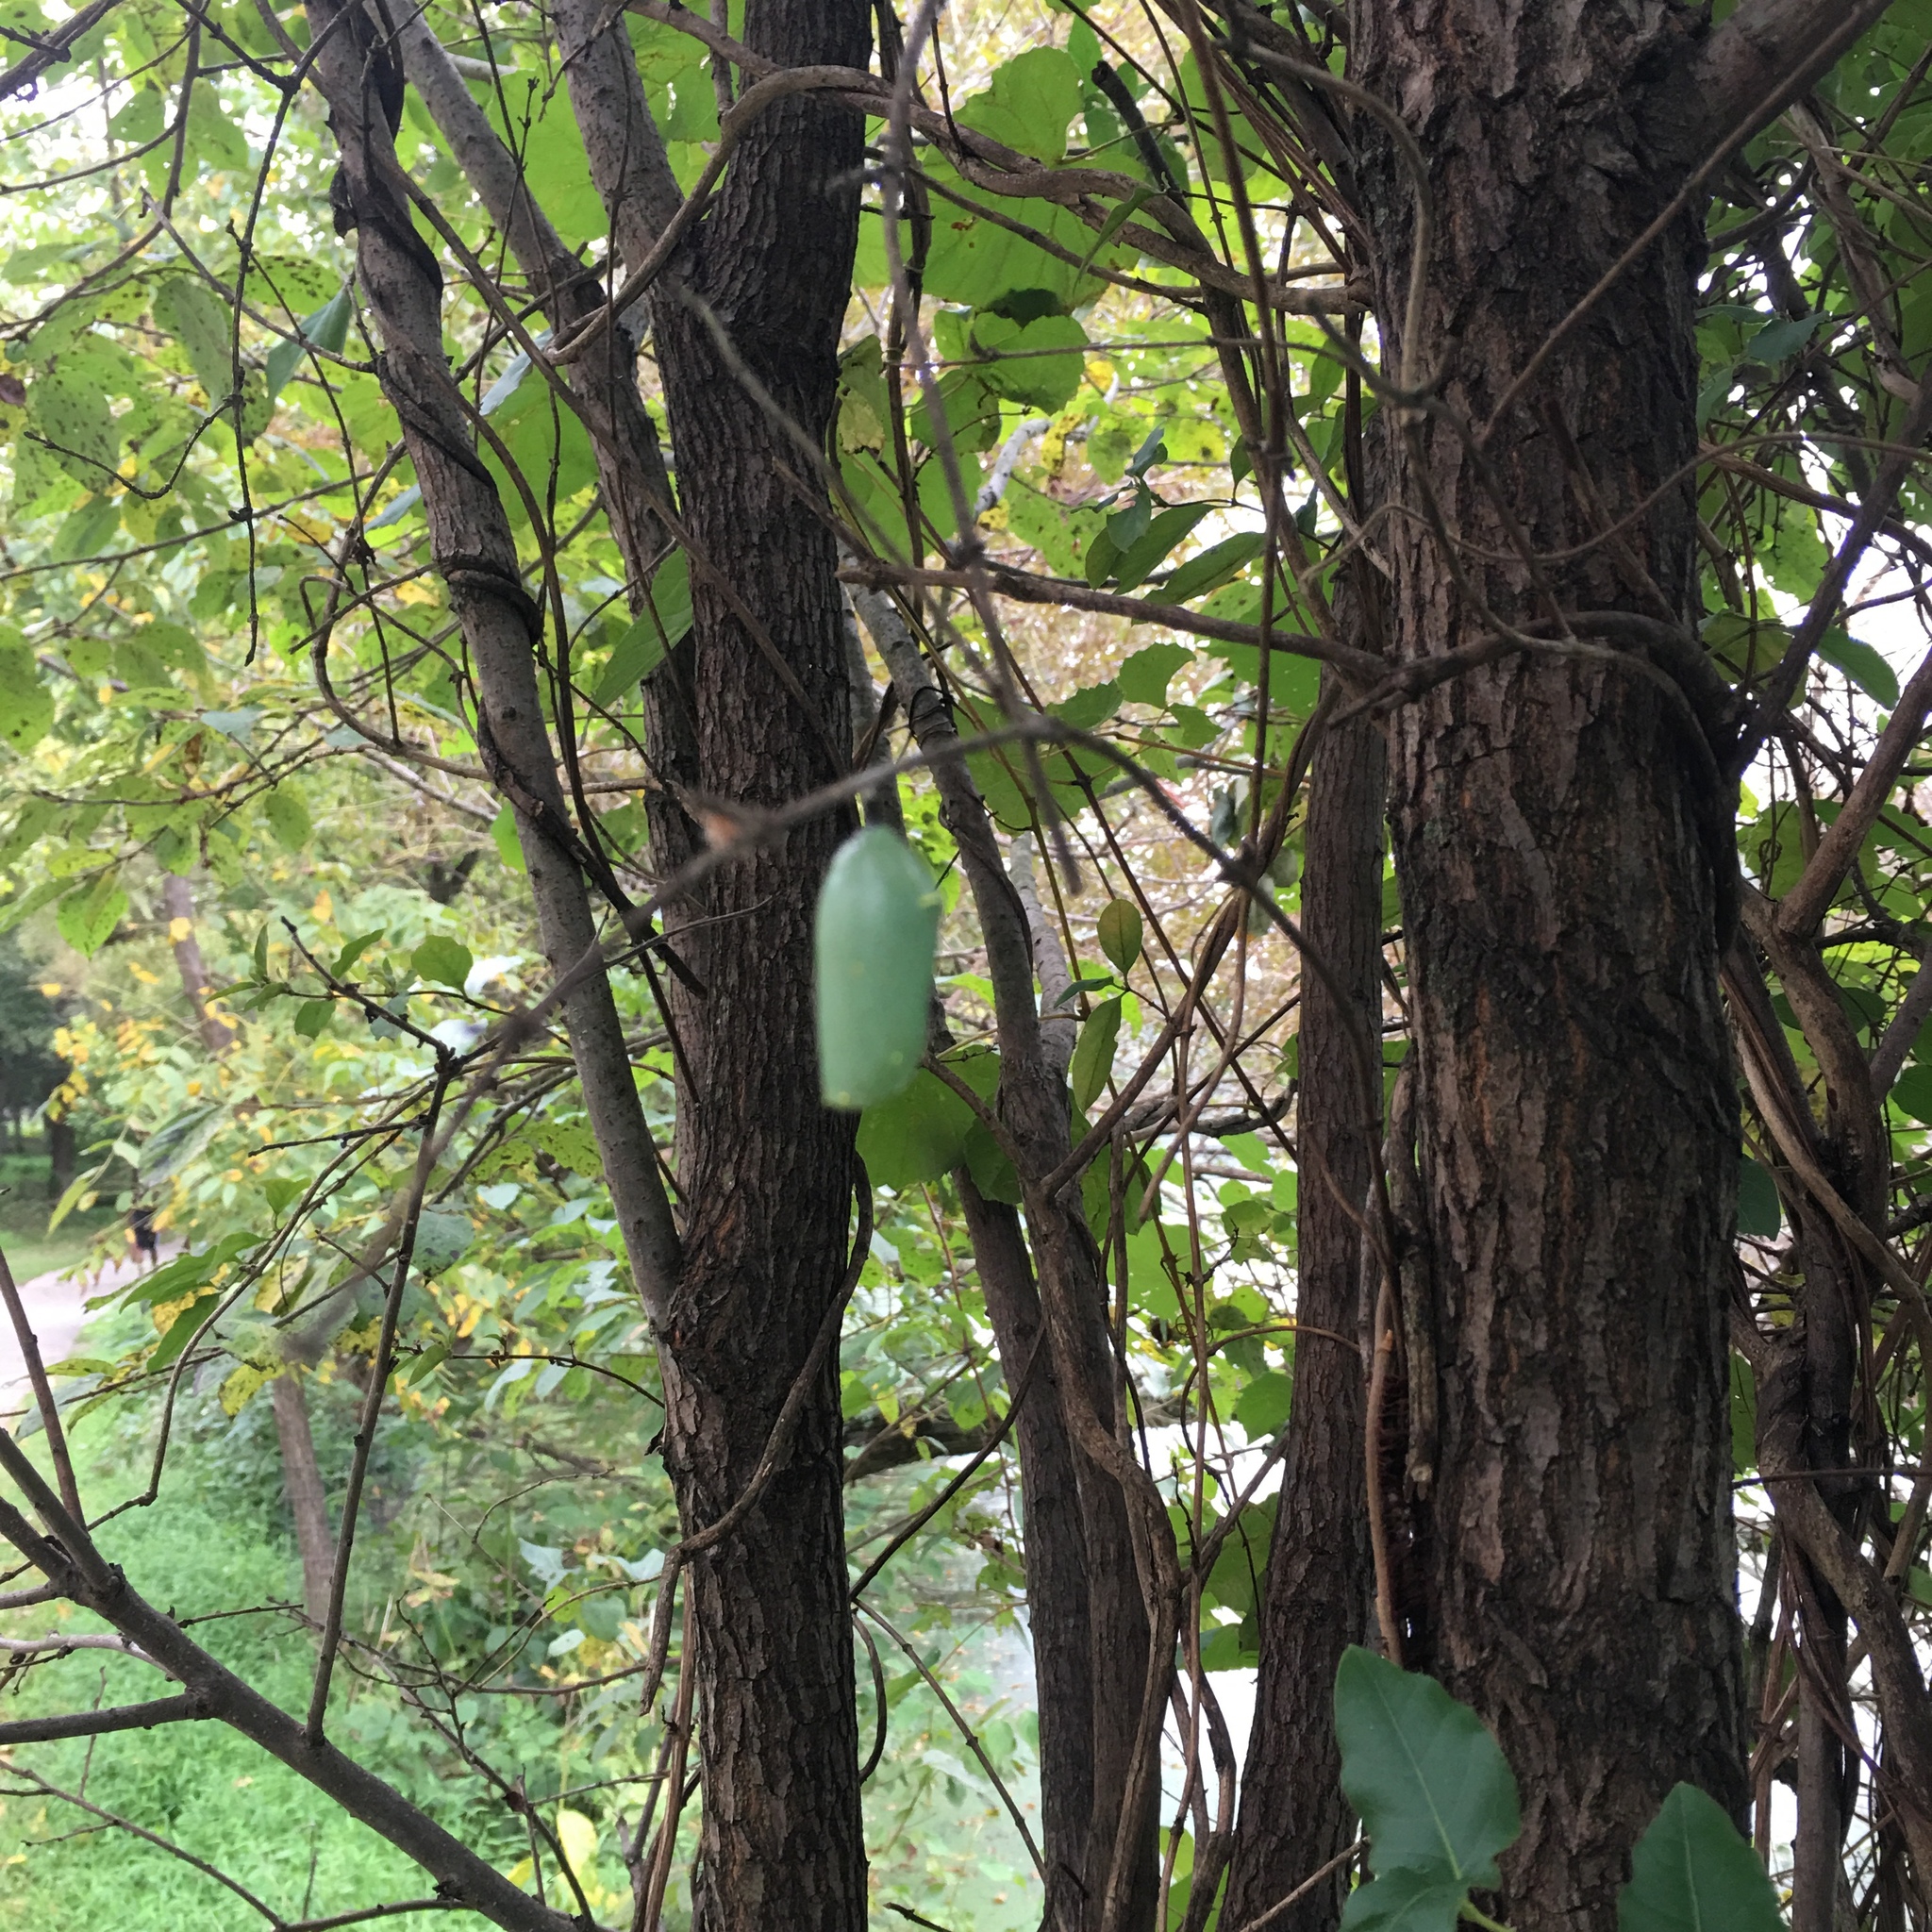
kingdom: Animalia
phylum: Arthropoda
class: Insecta
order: Lepidoptera
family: Nymphalidae
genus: Danaus
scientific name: Danaus plexippus
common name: Monarch
